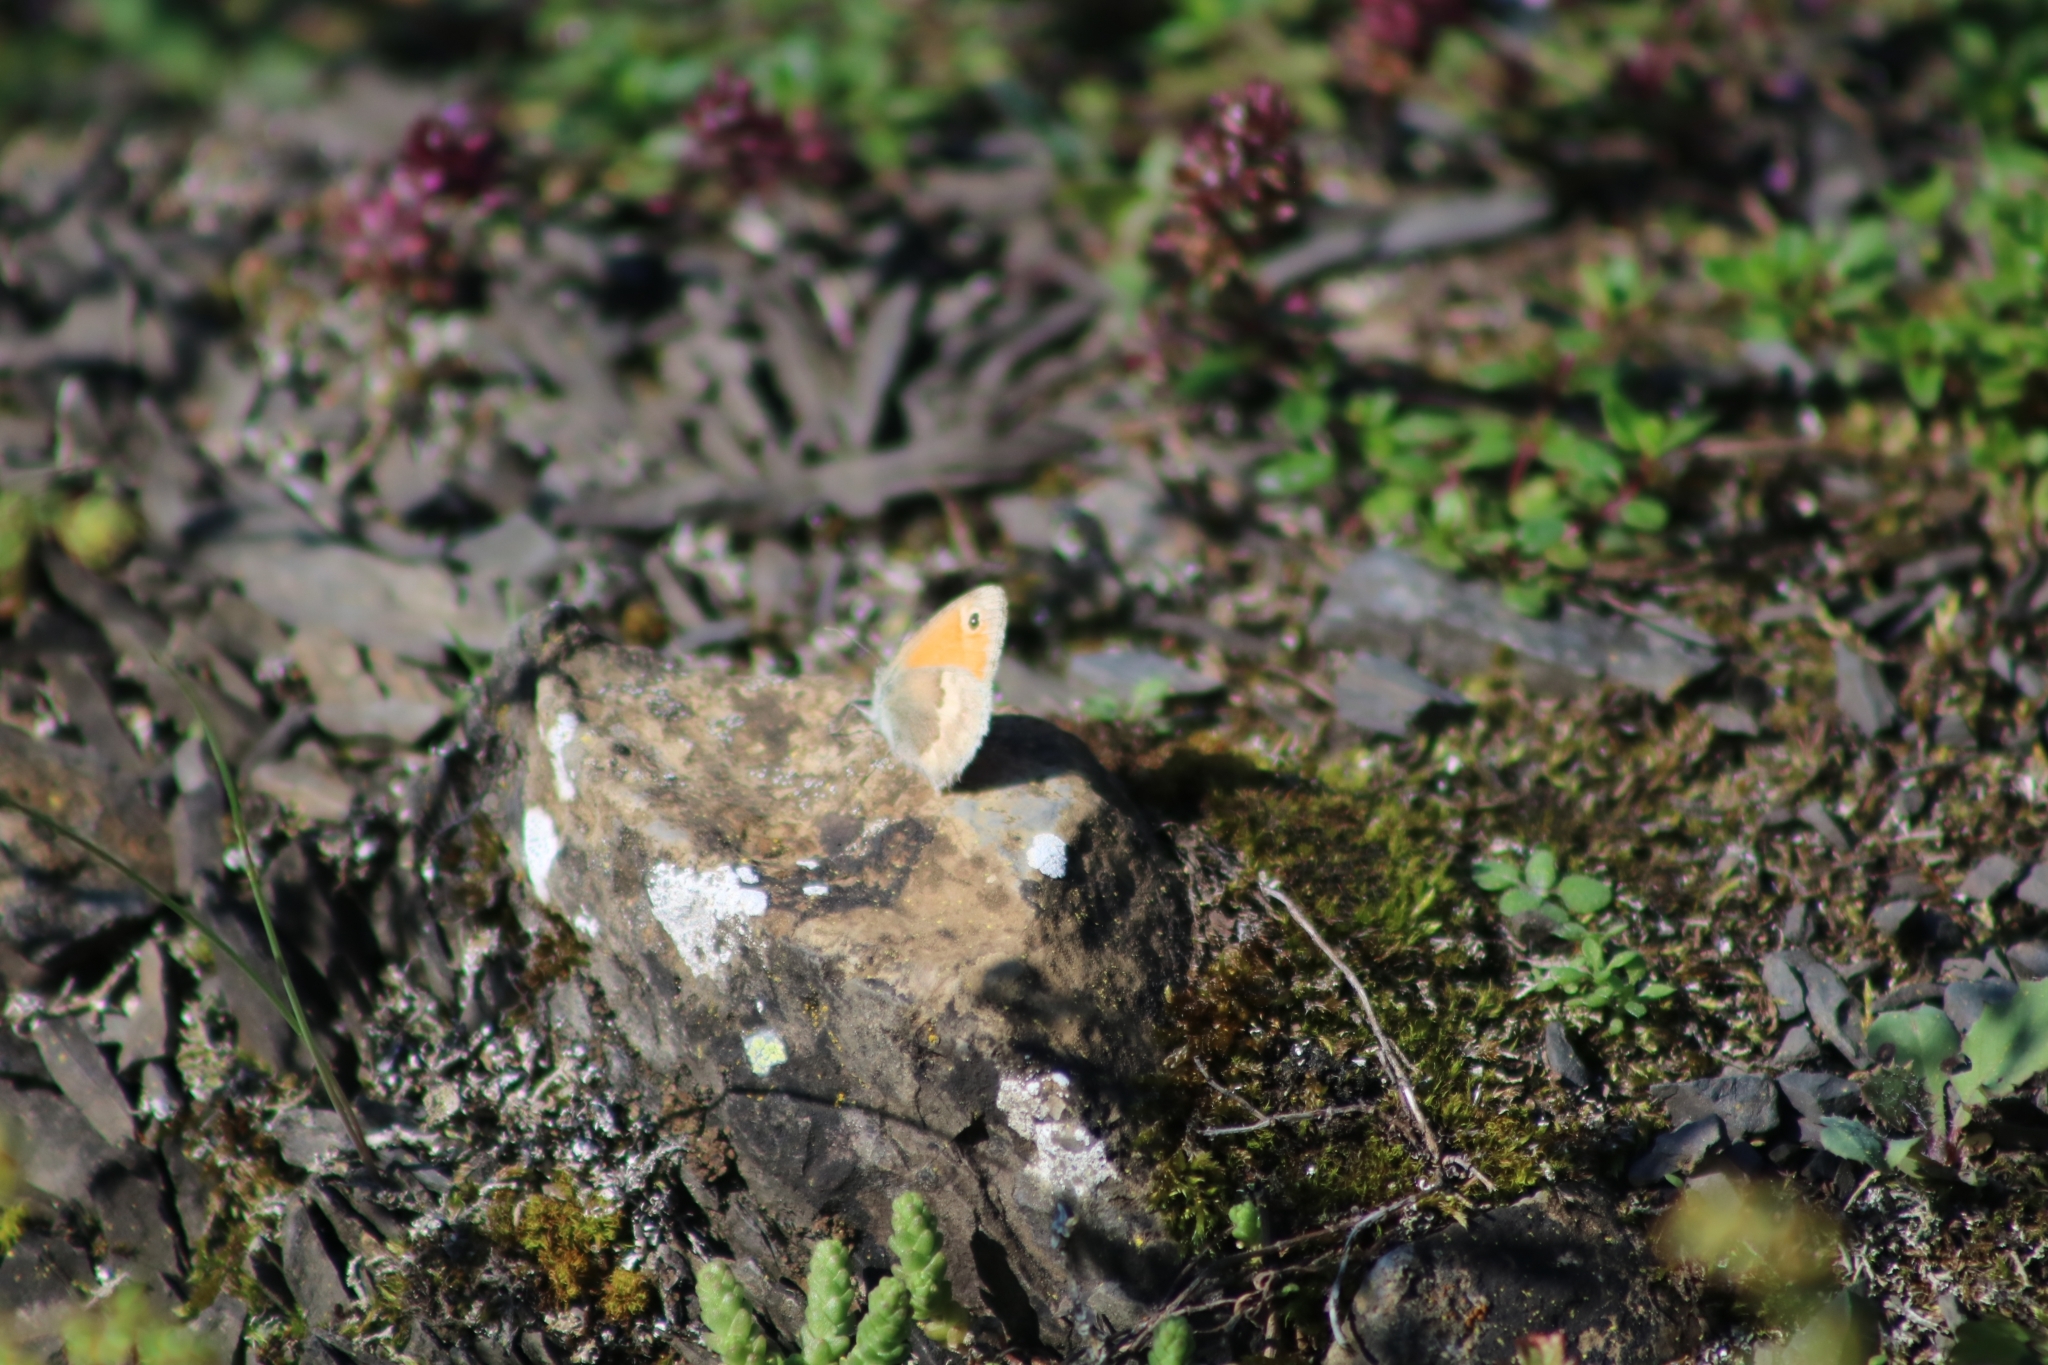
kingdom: Animalia
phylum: Arthropoda
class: Insecta
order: Lepidoptera
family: Nymphalidae
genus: Coenonympha
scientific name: Coenonympha pamphilus
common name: Small heath
